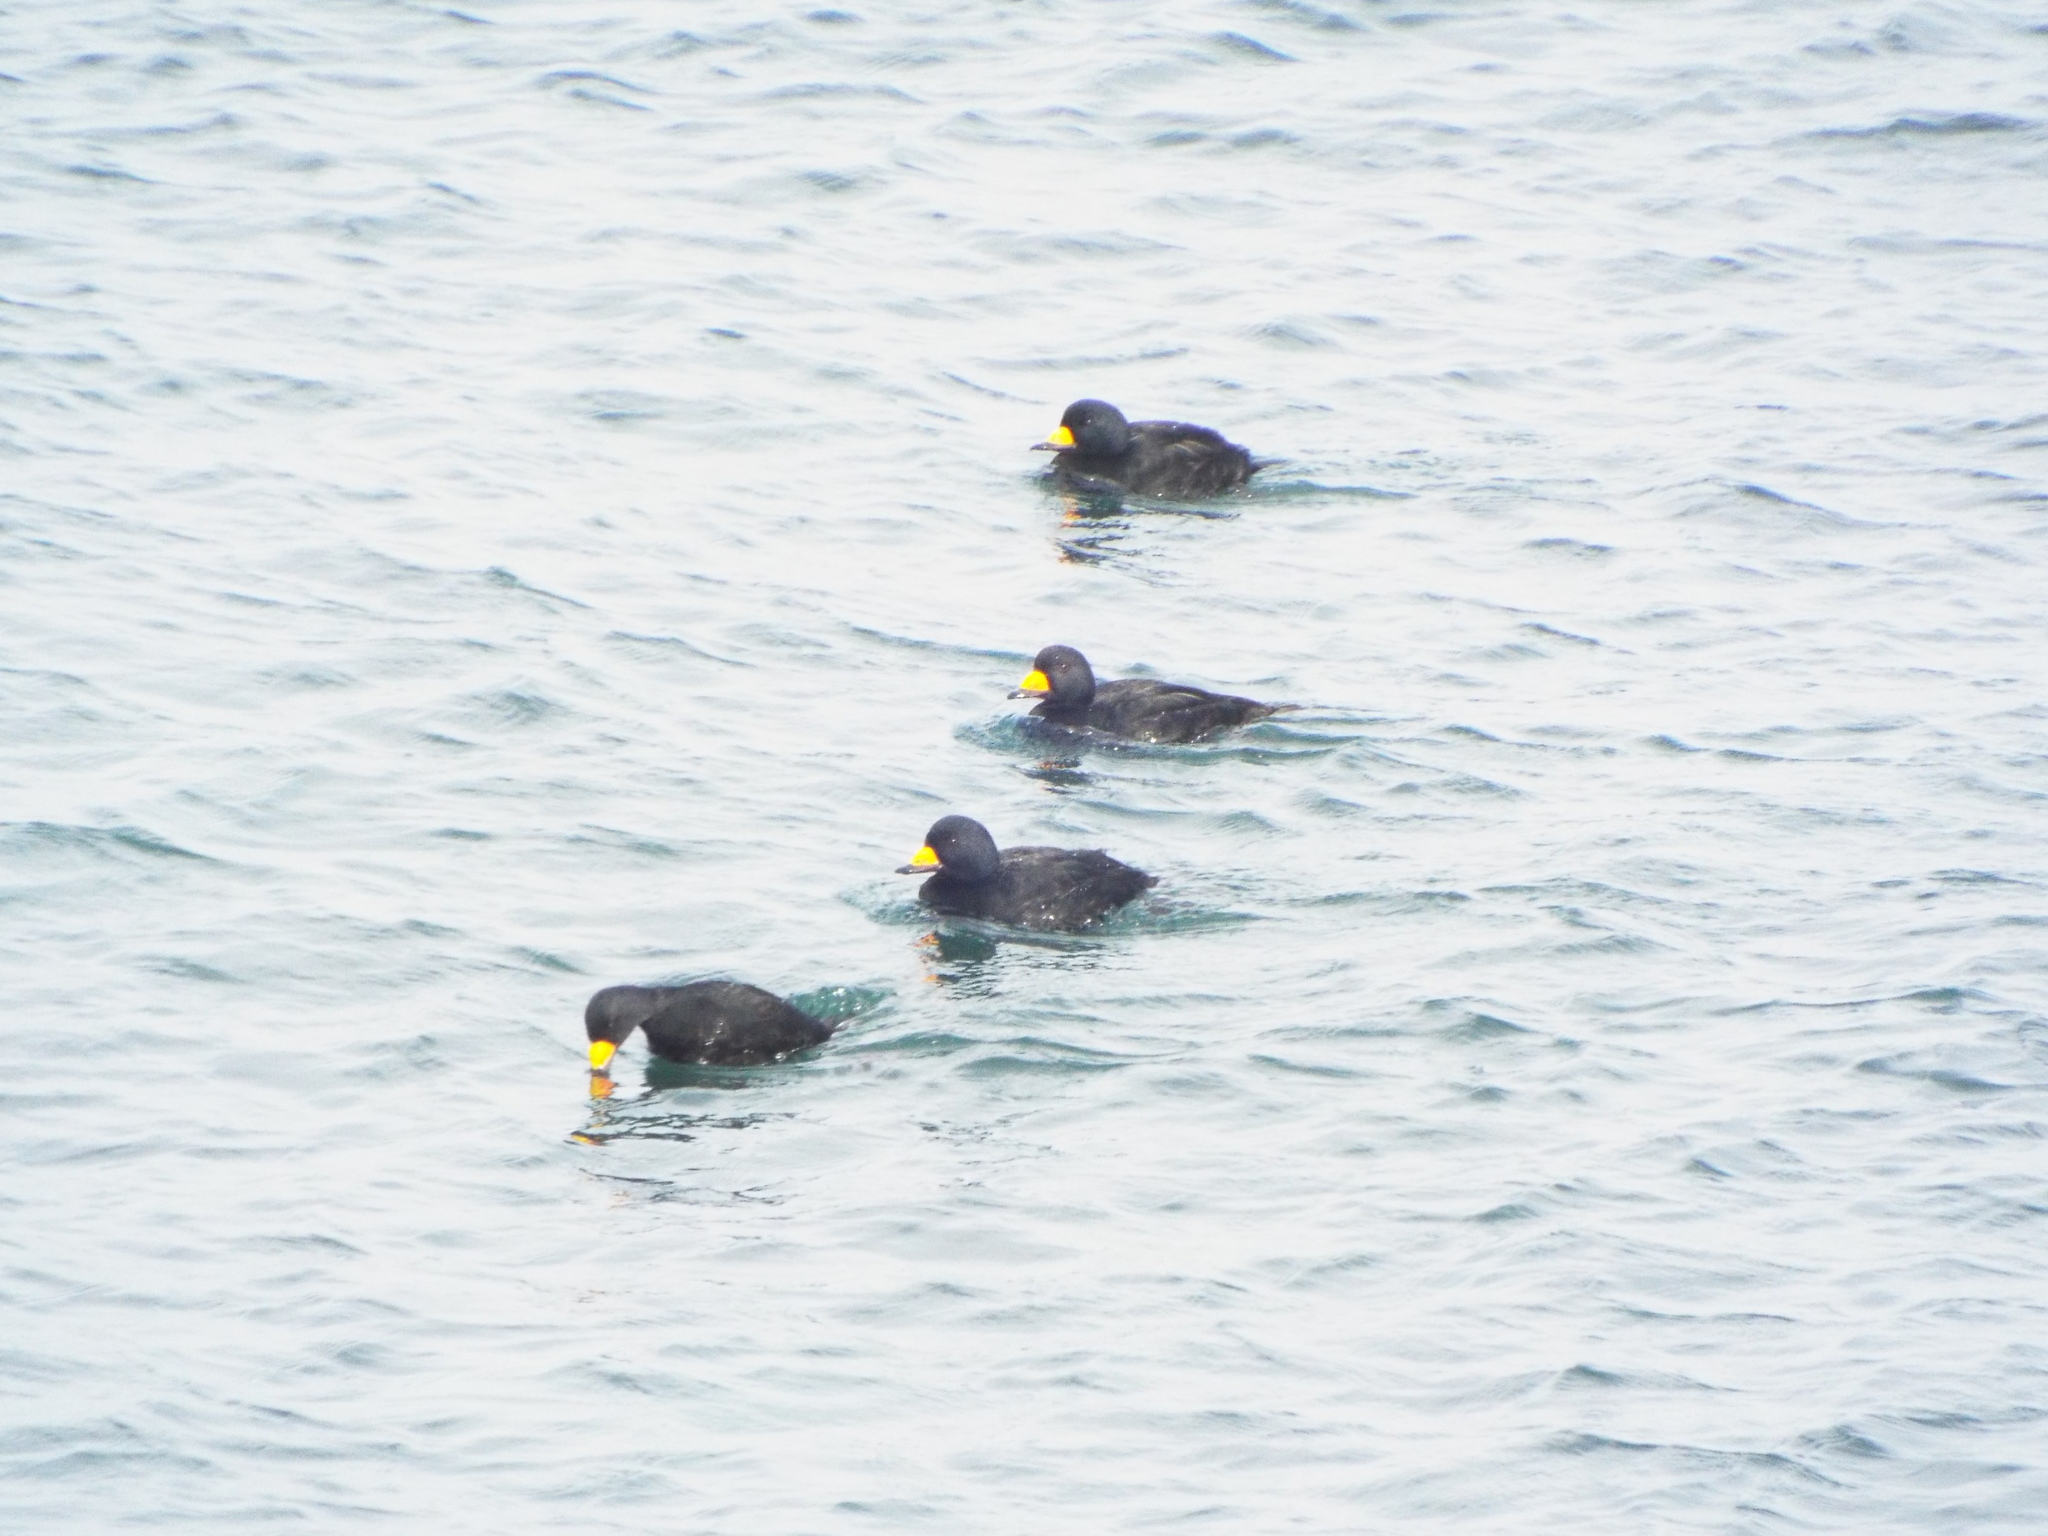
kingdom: Animalia
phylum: Chordata
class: Aves
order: Anseriformes
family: Anatidae
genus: Melanitta
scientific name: Melanitta americana
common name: Black scoter
